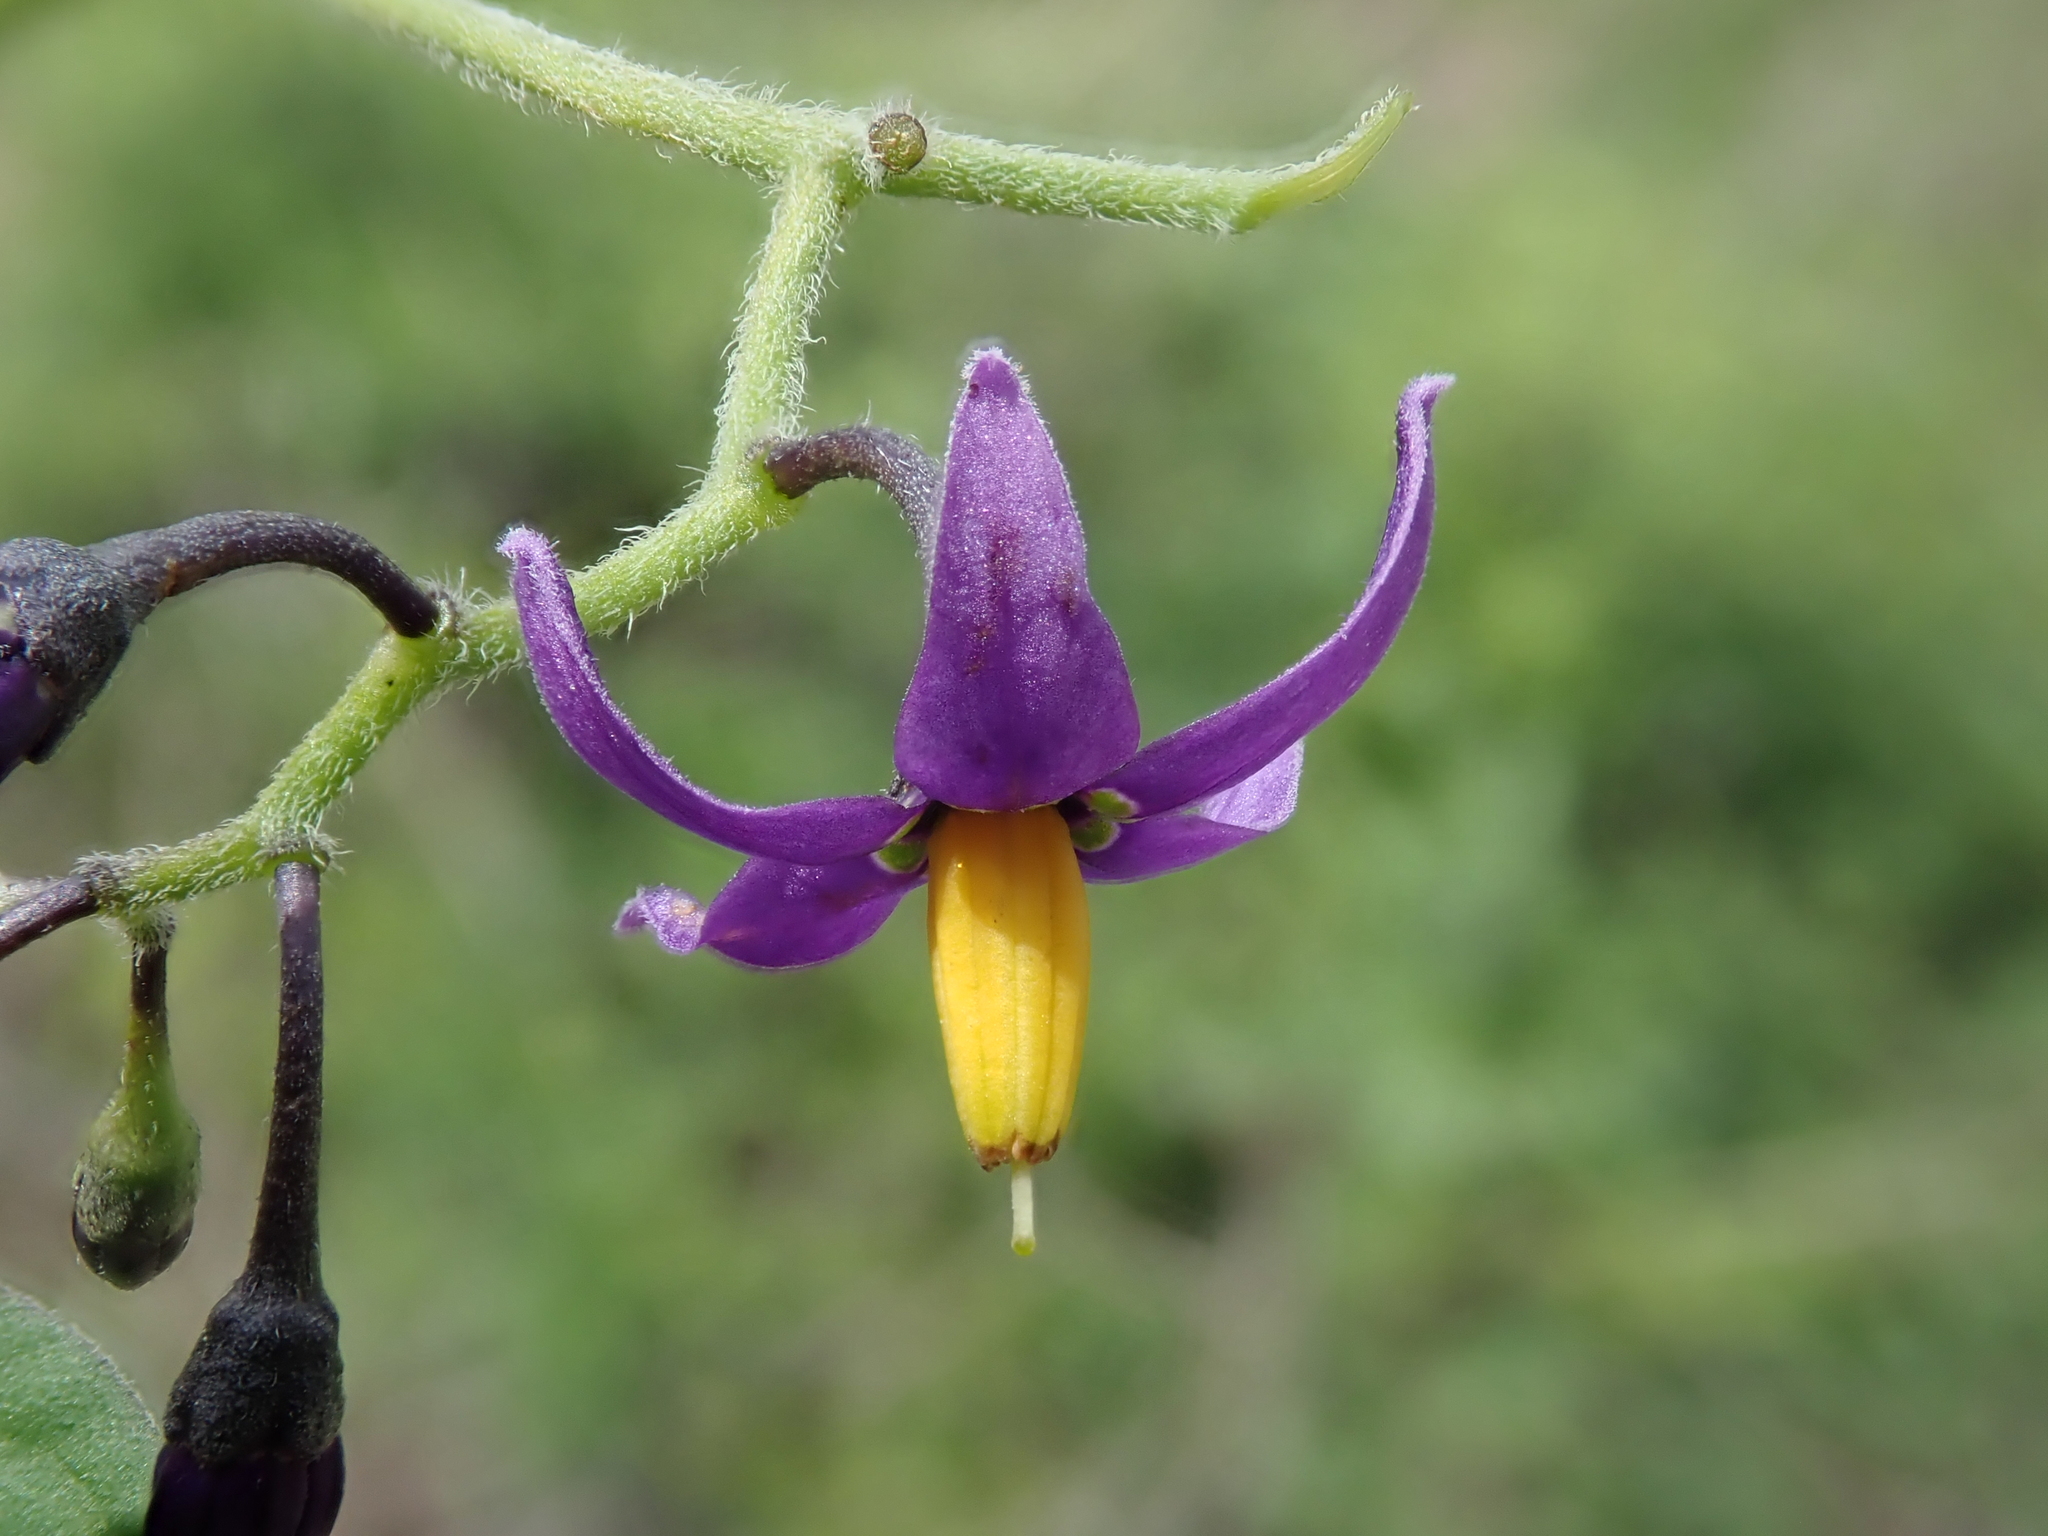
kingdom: Plantae
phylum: Tracheophyta
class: Magnoliopsida
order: Solanales
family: Solanaceae
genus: Solanum
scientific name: Solanum dulcamara
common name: Climbing nightshade
